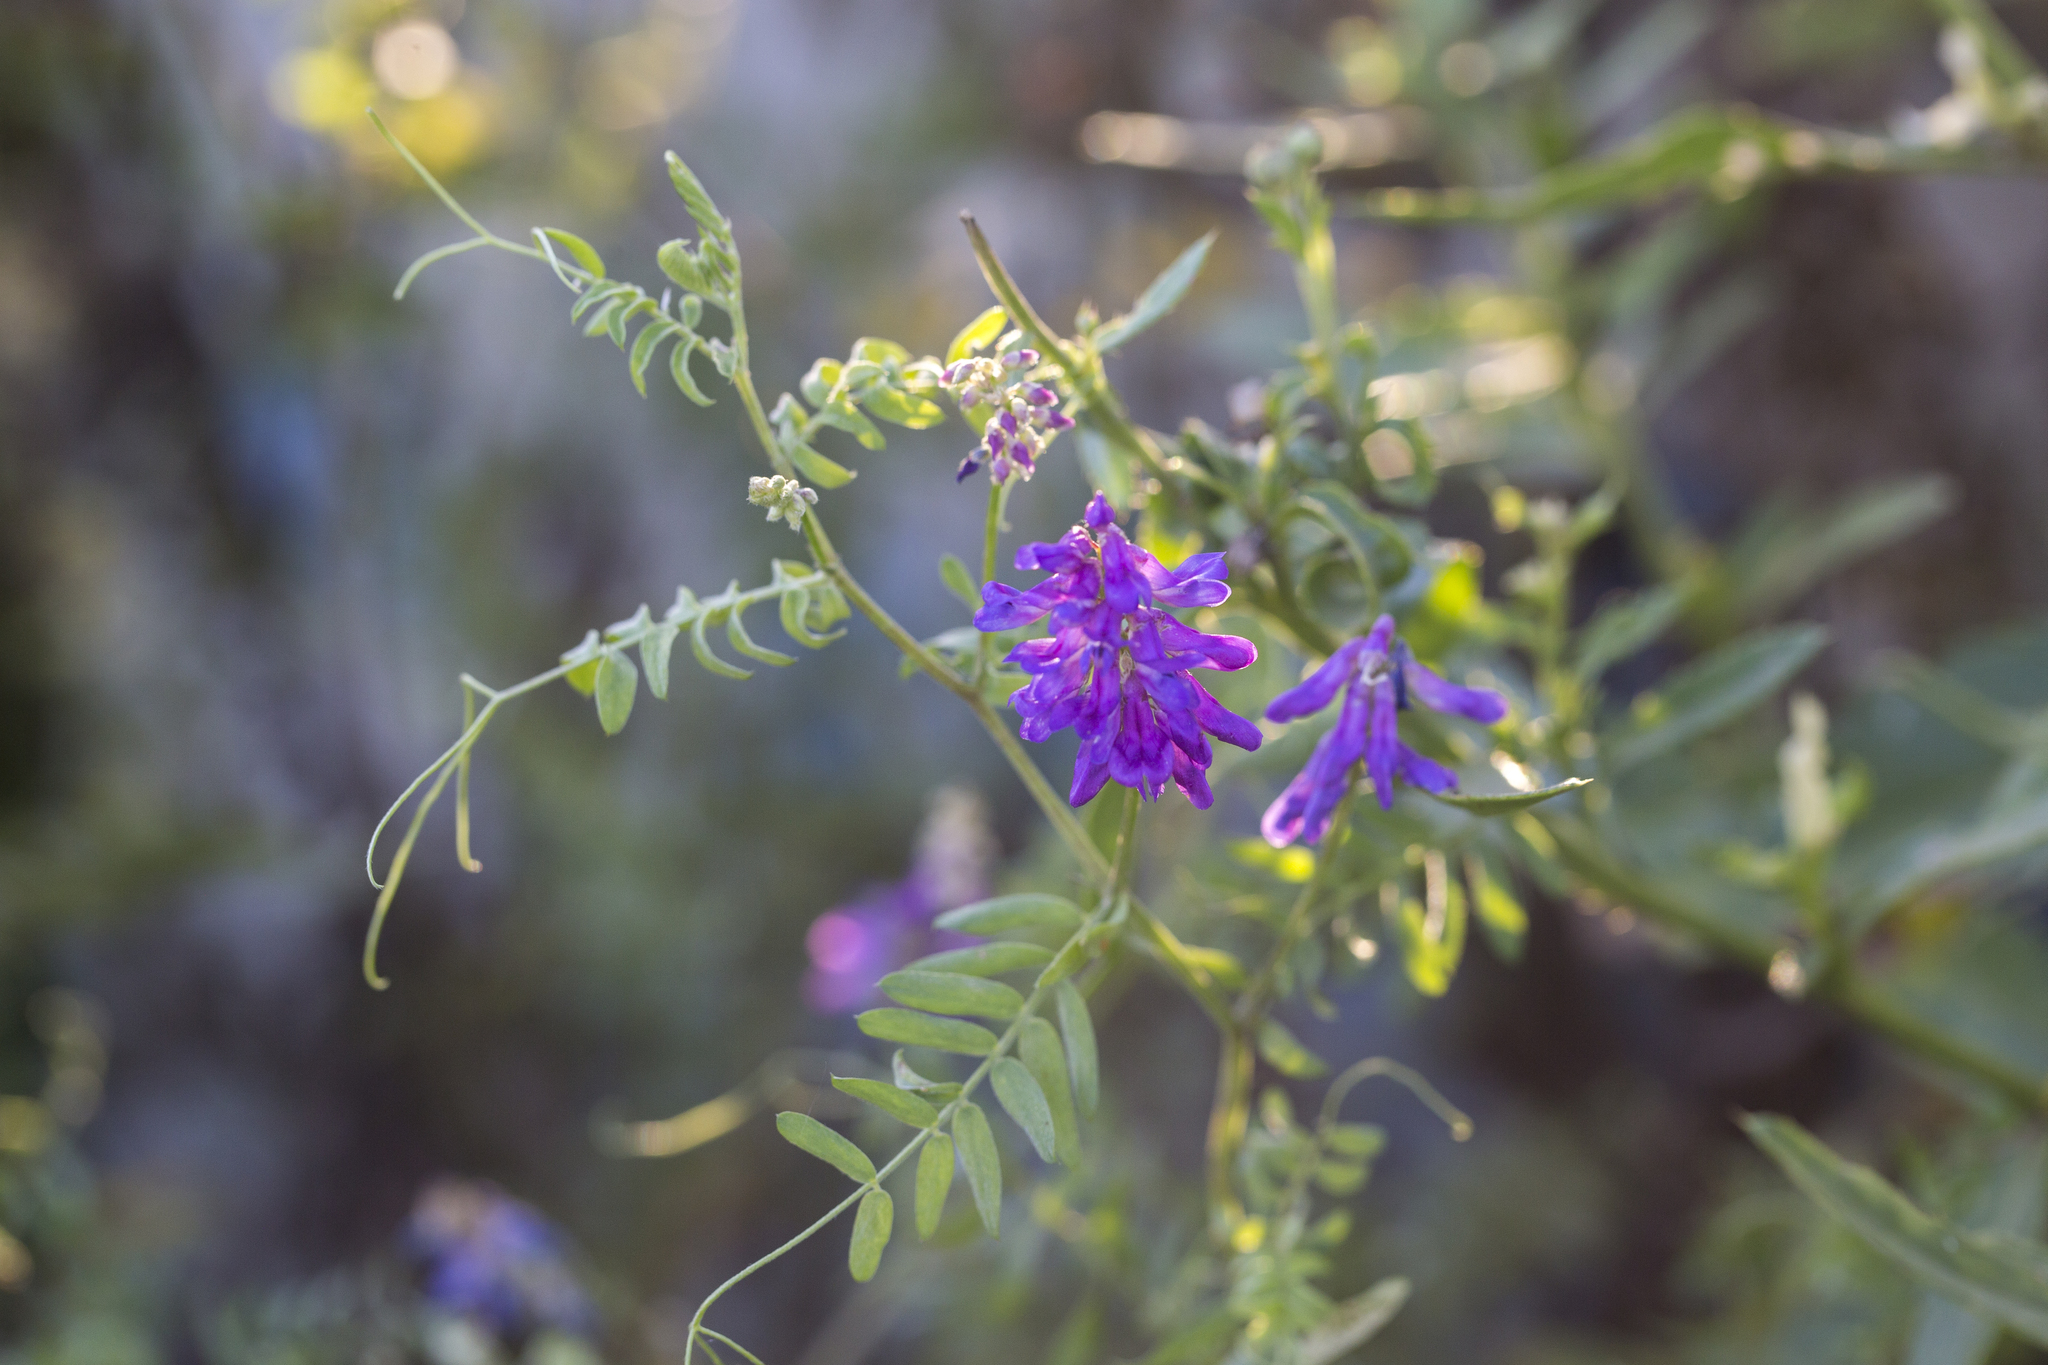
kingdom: Plantae
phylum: Tracheophyta
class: Magnoliopsida
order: Fabales
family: Fabaceae
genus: Vicia
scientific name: Vicia cracca
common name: Bird vetch
